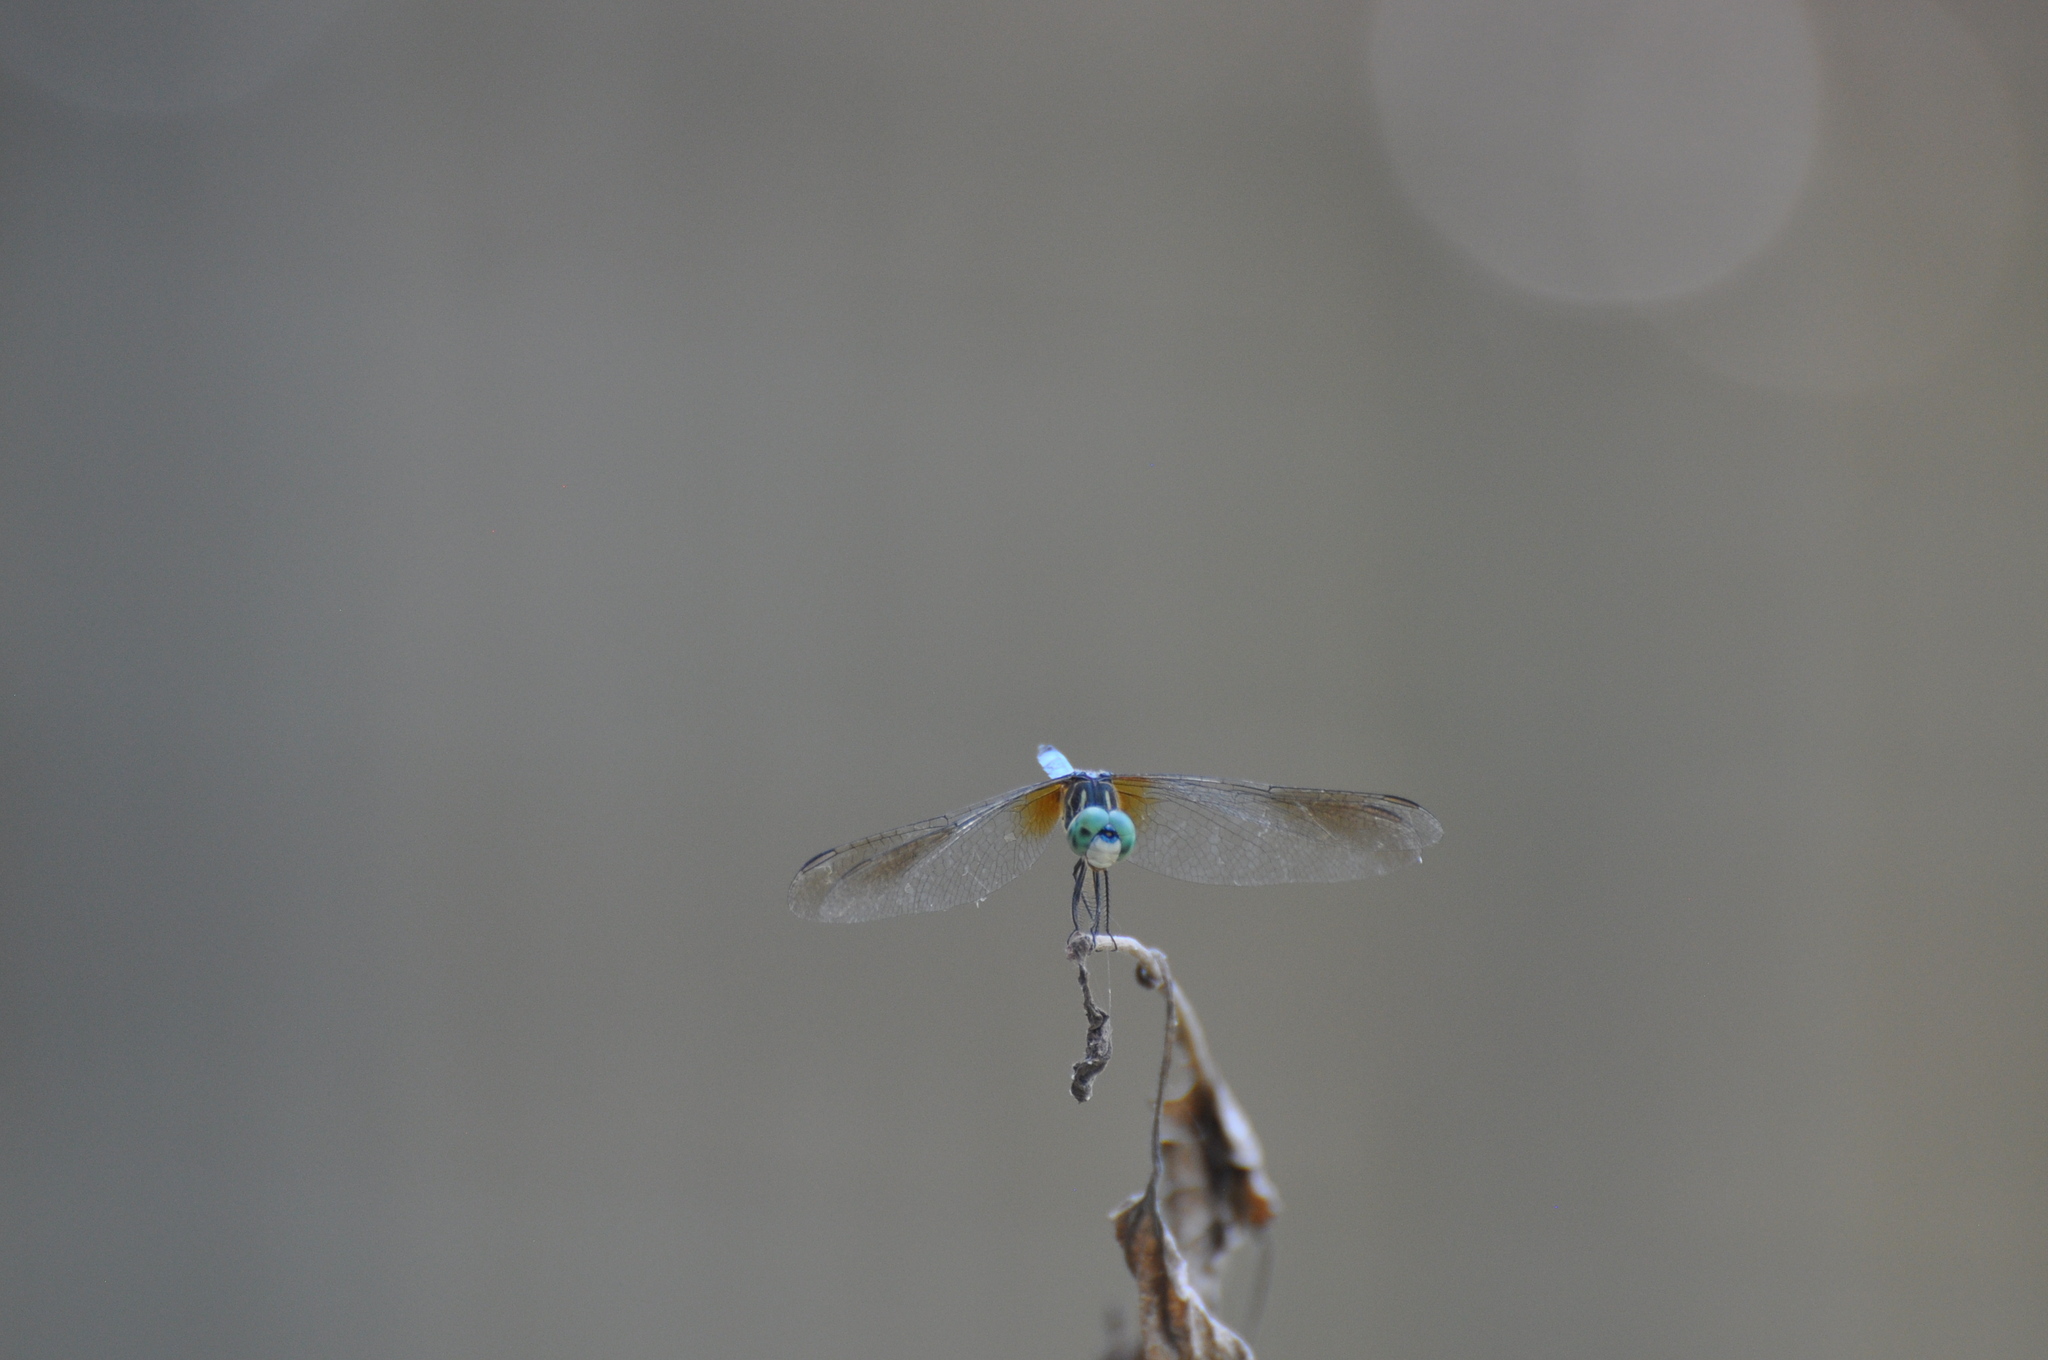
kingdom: Animalia
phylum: Arthropoda
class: Insecta
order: Odonata
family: Libellulidae
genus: Pachydiplax
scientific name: Pachydiplax longipennis
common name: Blue dasher
